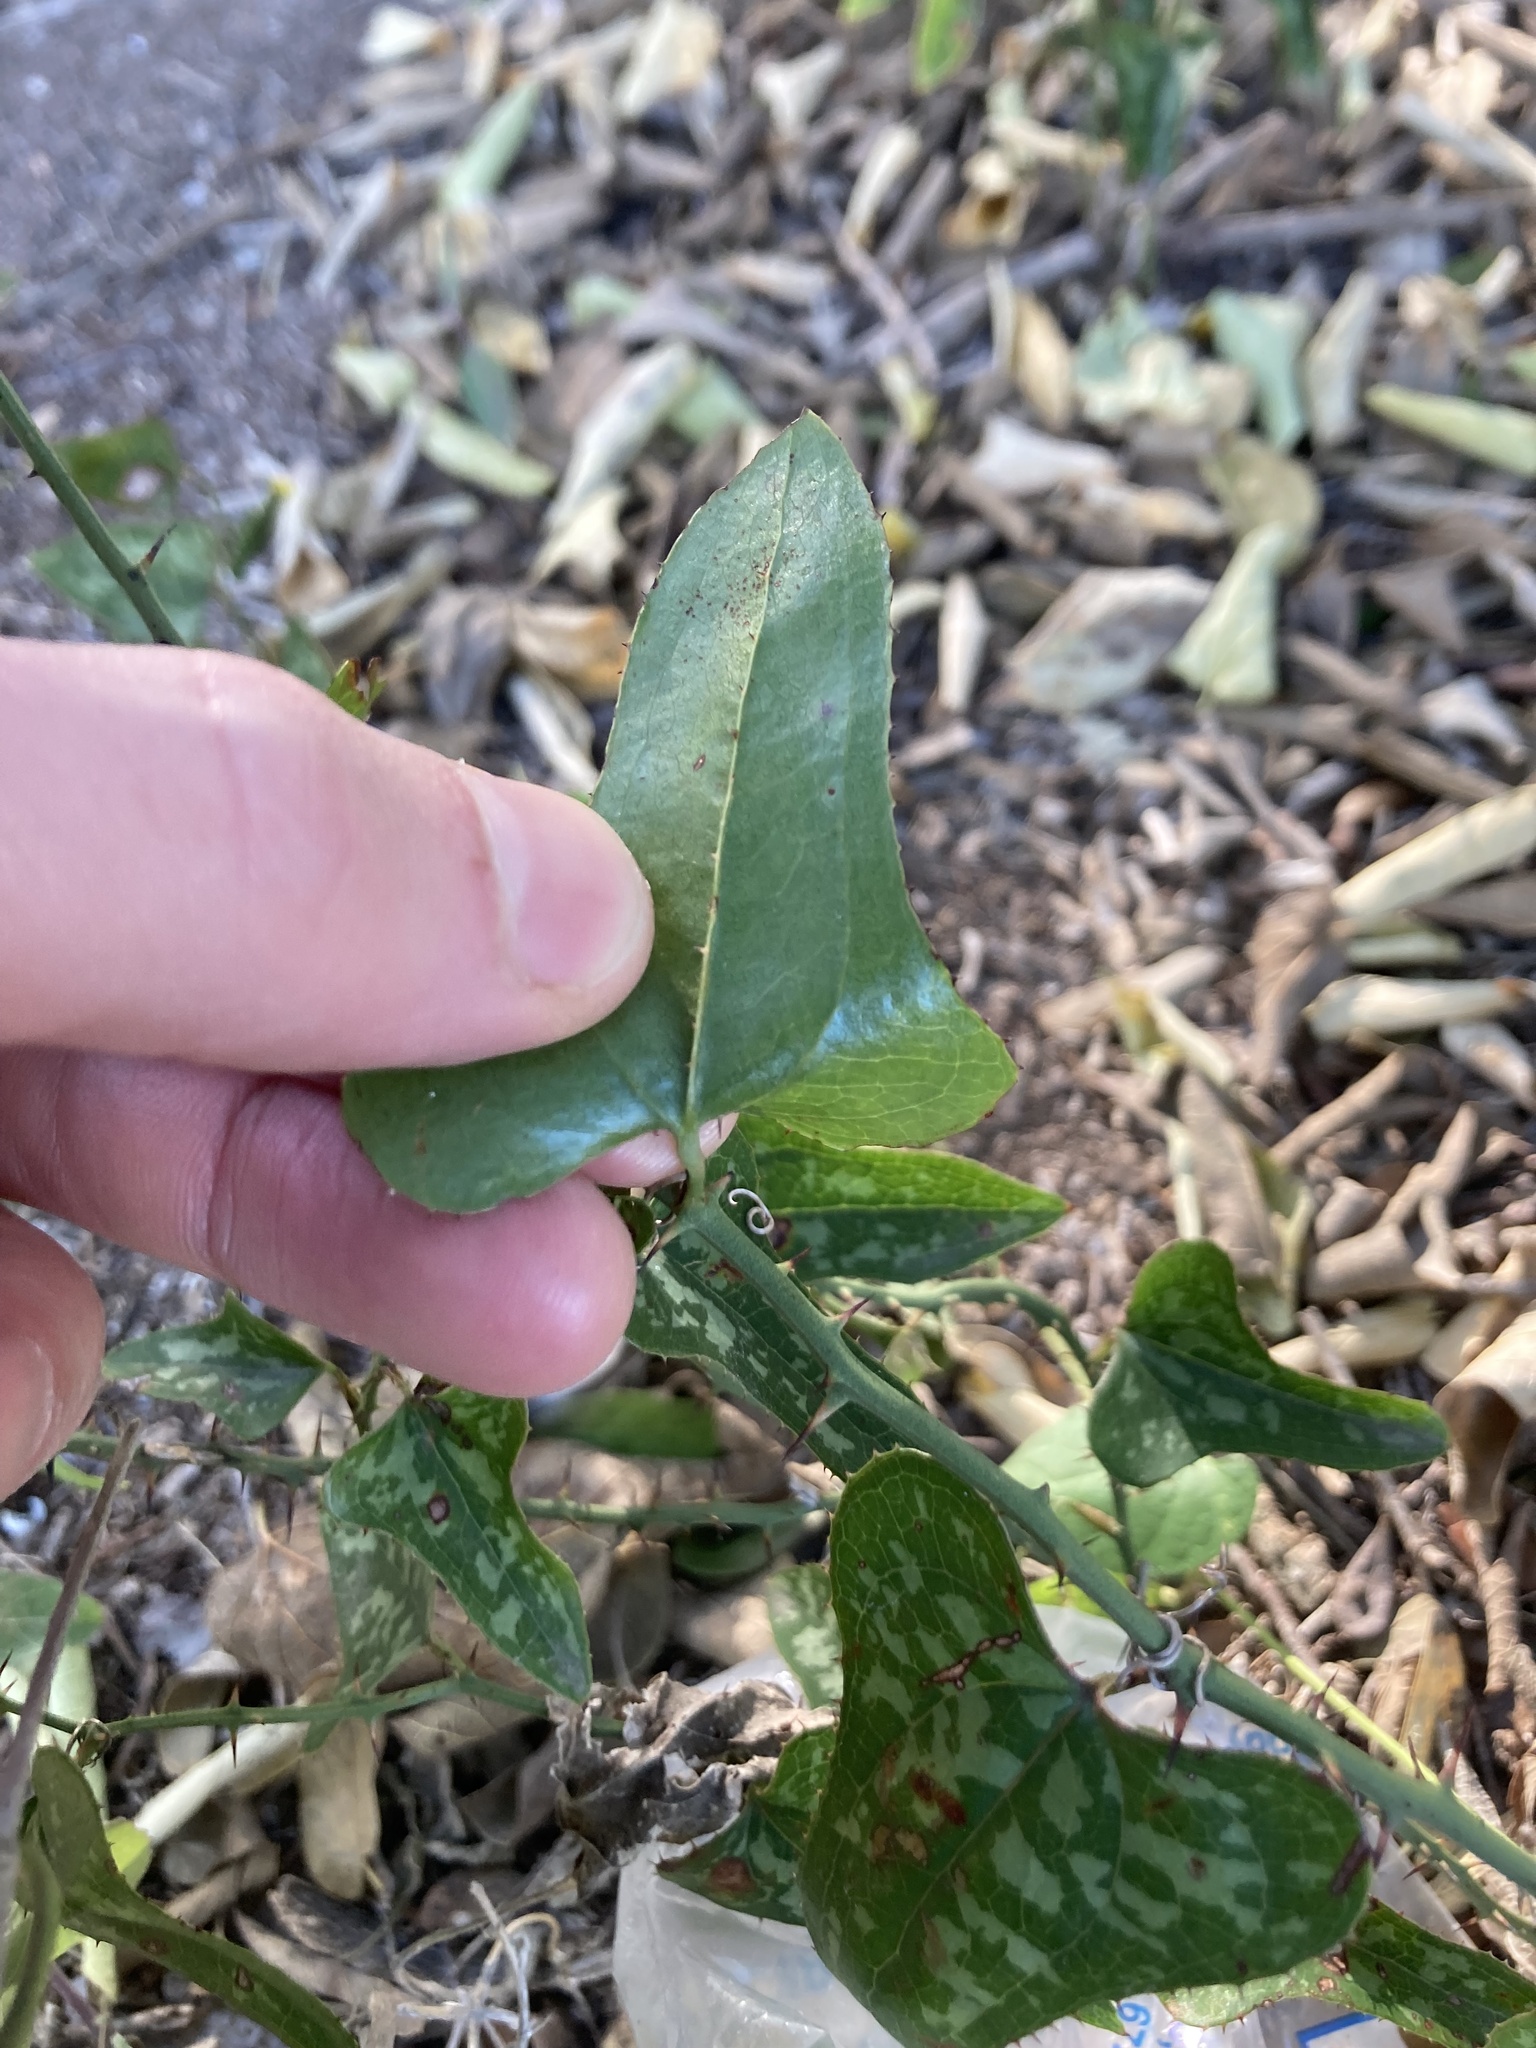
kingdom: Plantae
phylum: Tracheophyta
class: Liliopsida
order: Liliales
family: Smilacaceae
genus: Smilax
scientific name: Smilax bona-nox
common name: Catbrier
